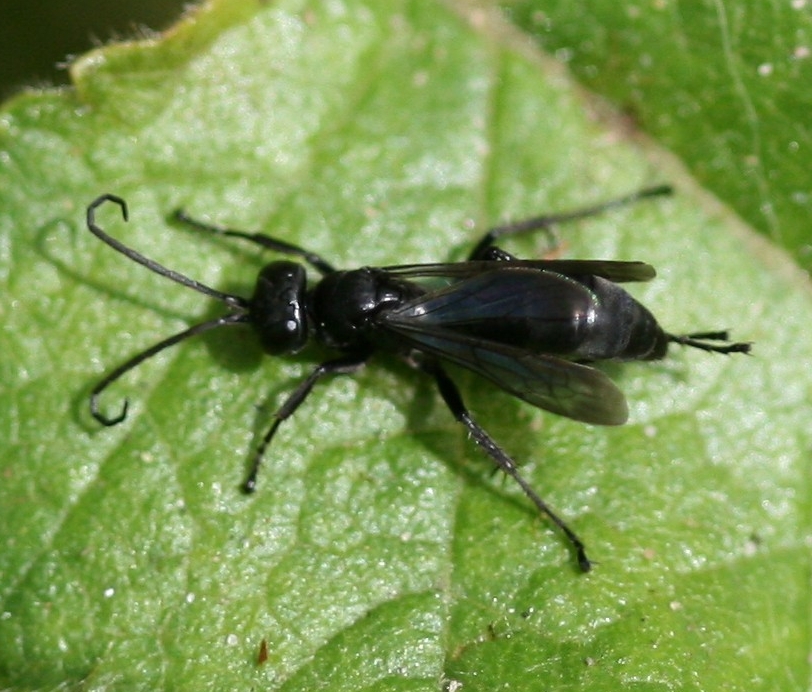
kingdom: Animalia
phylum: Arthropoda
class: Insecta
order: Hymenoptera
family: Pompilidae
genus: Anoplius
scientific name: Anoplius nigerrimus
